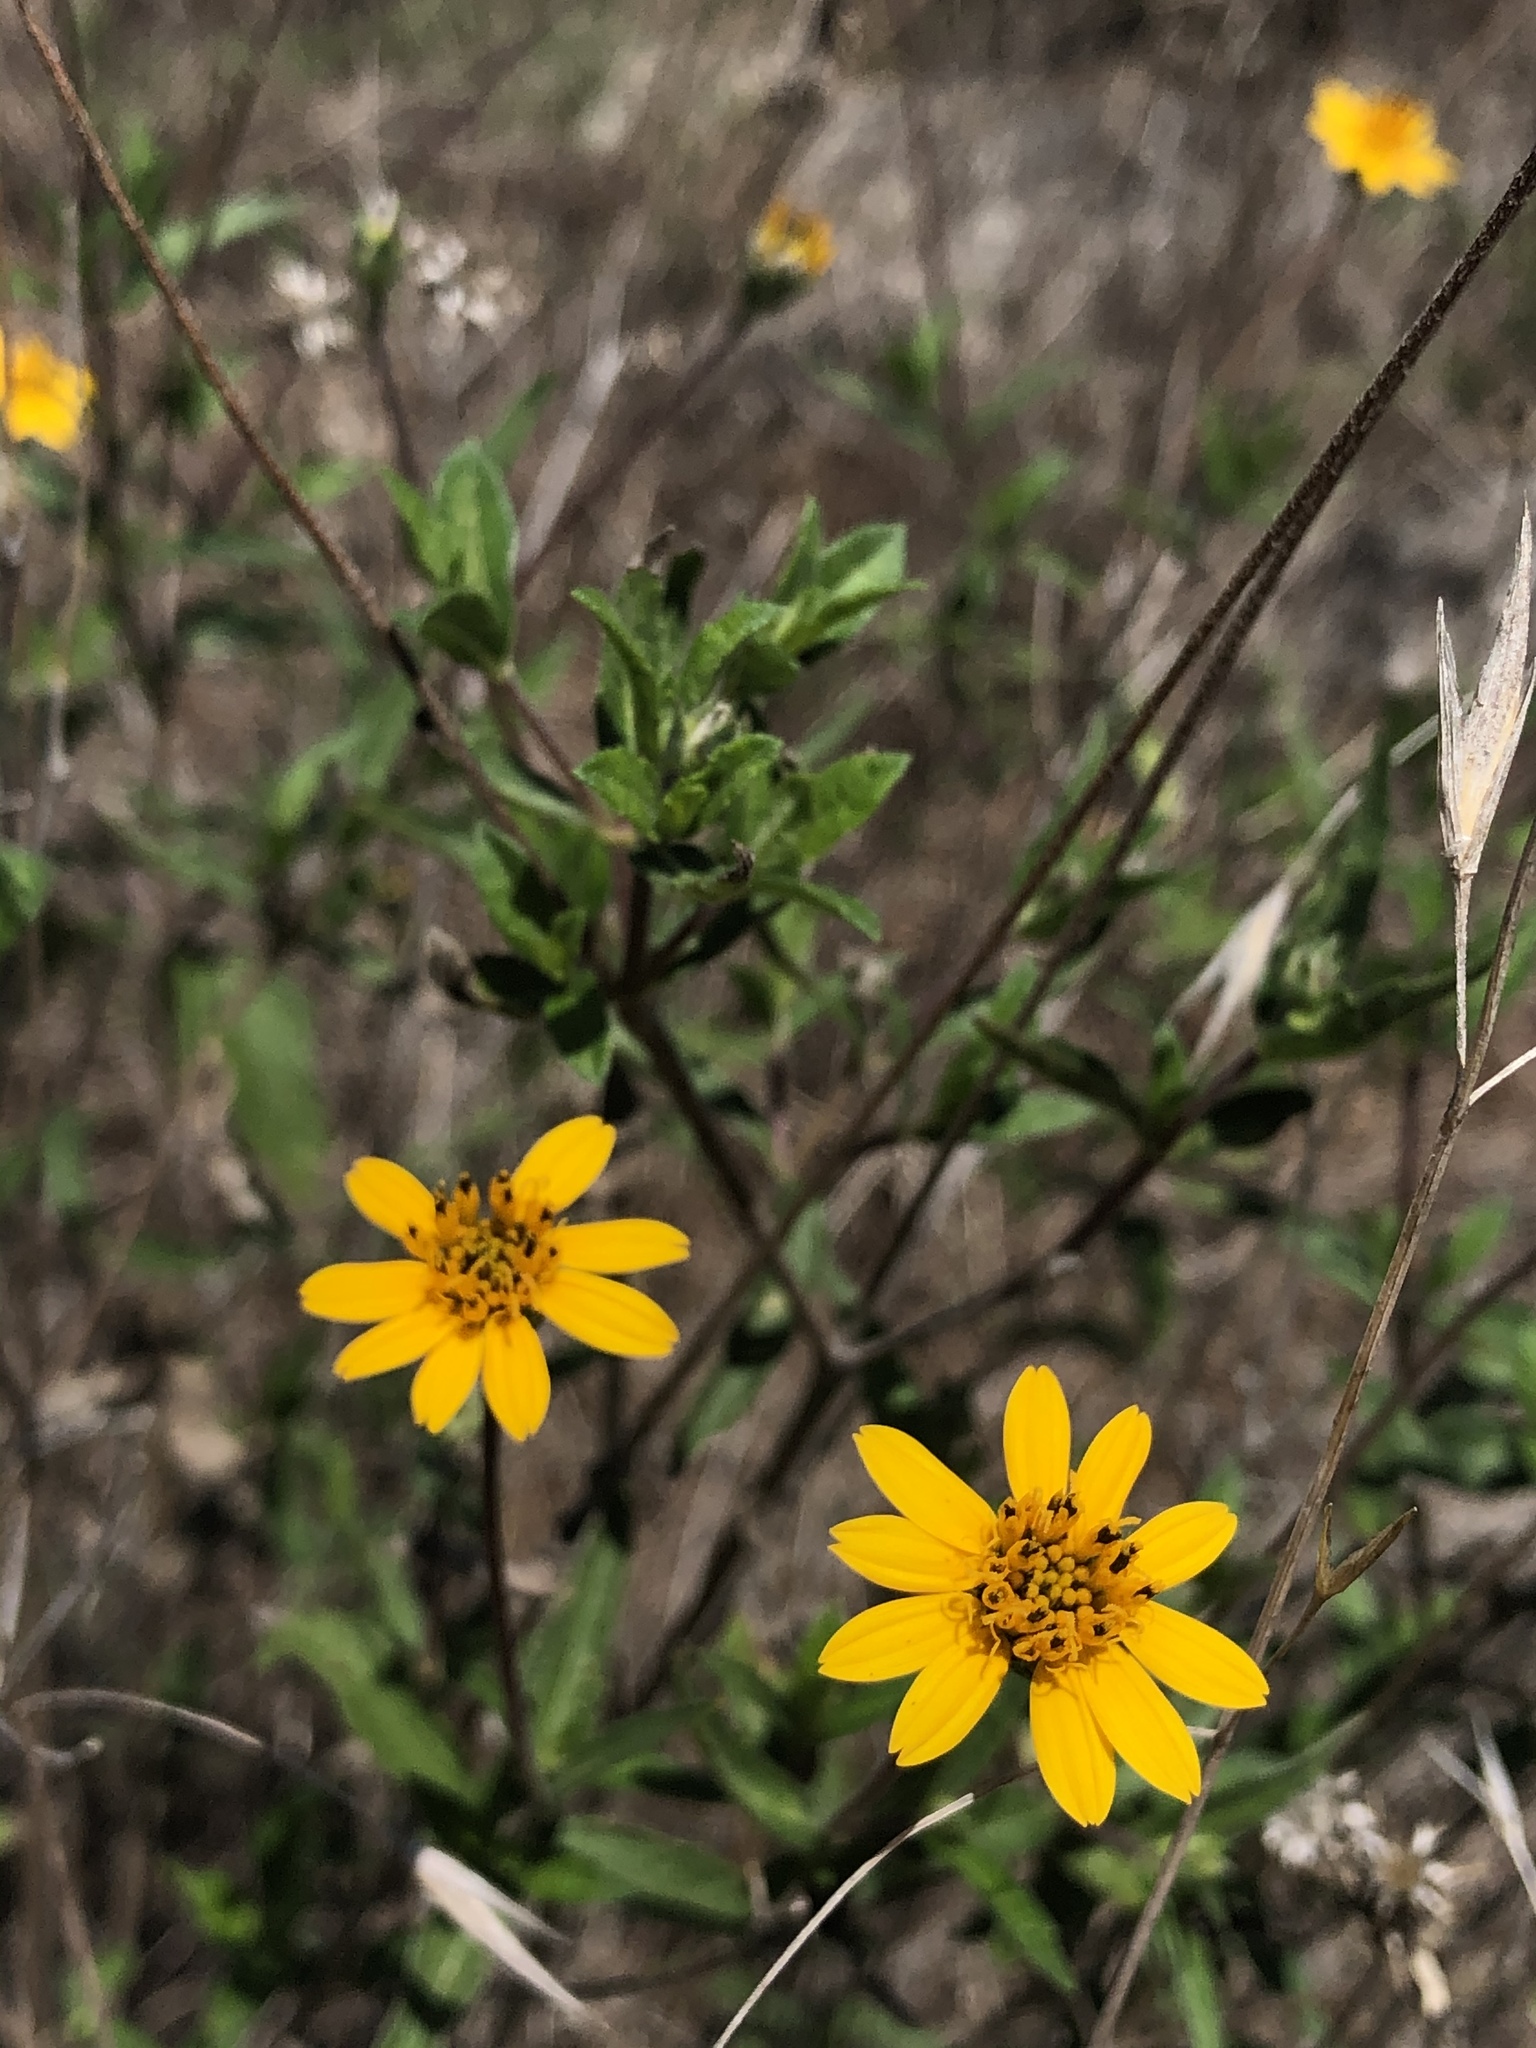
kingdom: Plantae
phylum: Tracheophyta
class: Magnoliopsida
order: Asterales
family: Asteraceae
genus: Wedelia
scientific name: Wedelia acapulcensis
